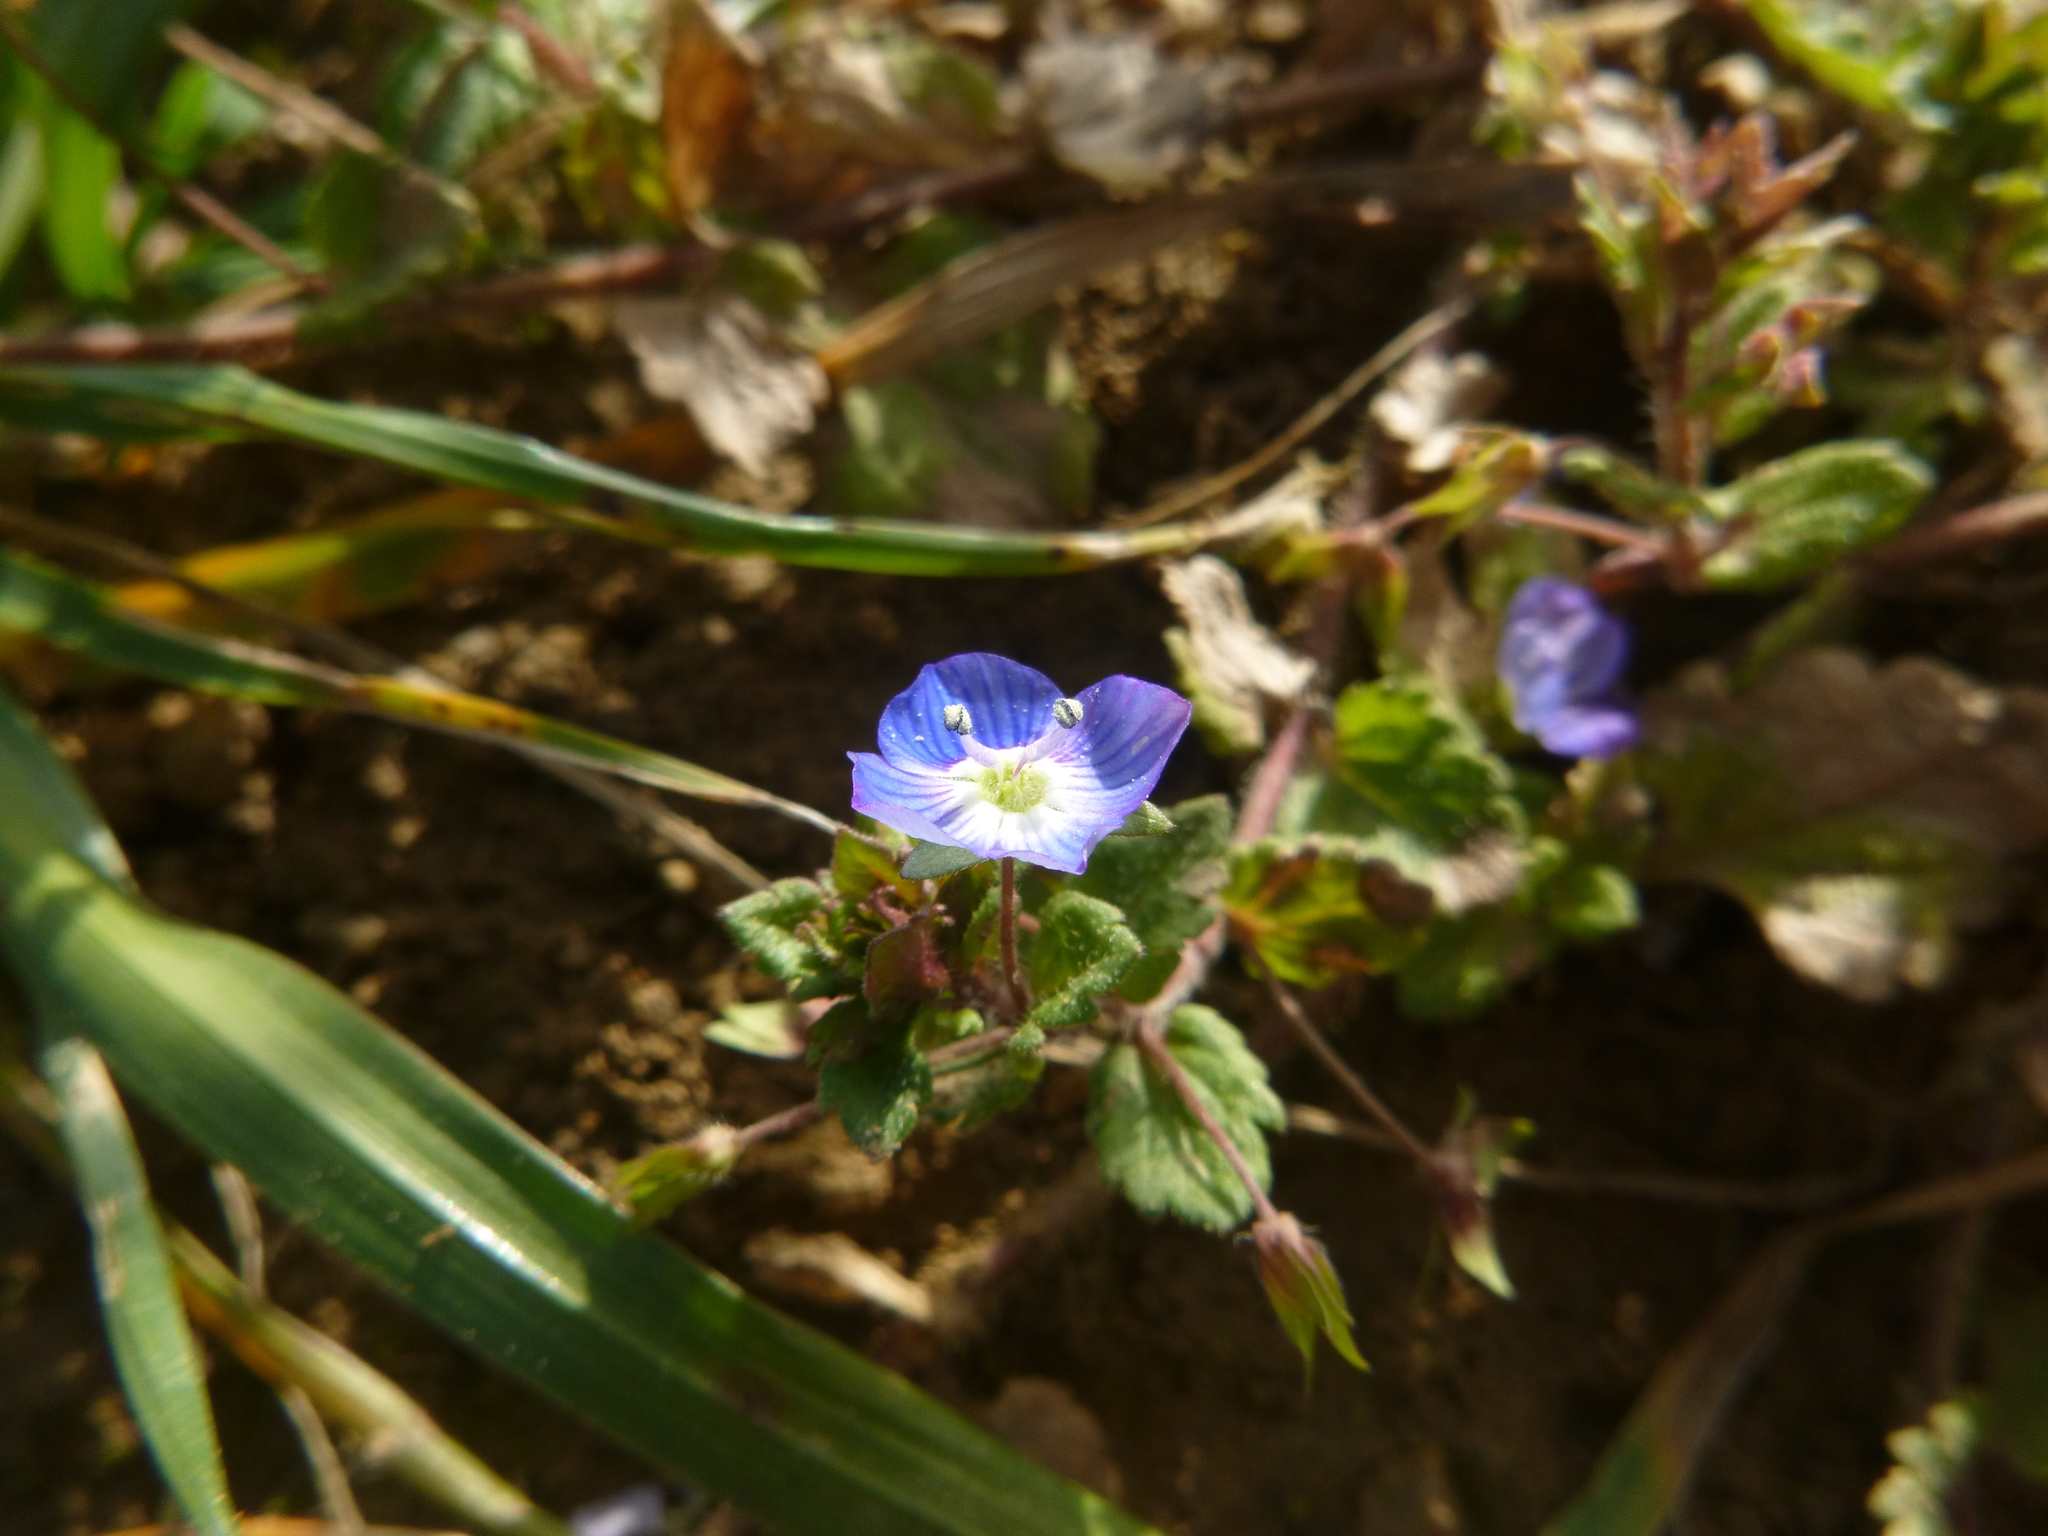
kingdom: Plantae
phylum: Tracheophyta
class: Magnoliopsida
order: Lamiales
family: Plantaginaceae
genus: Veronica
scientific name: Veronica persica
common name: Common field-speedwell
